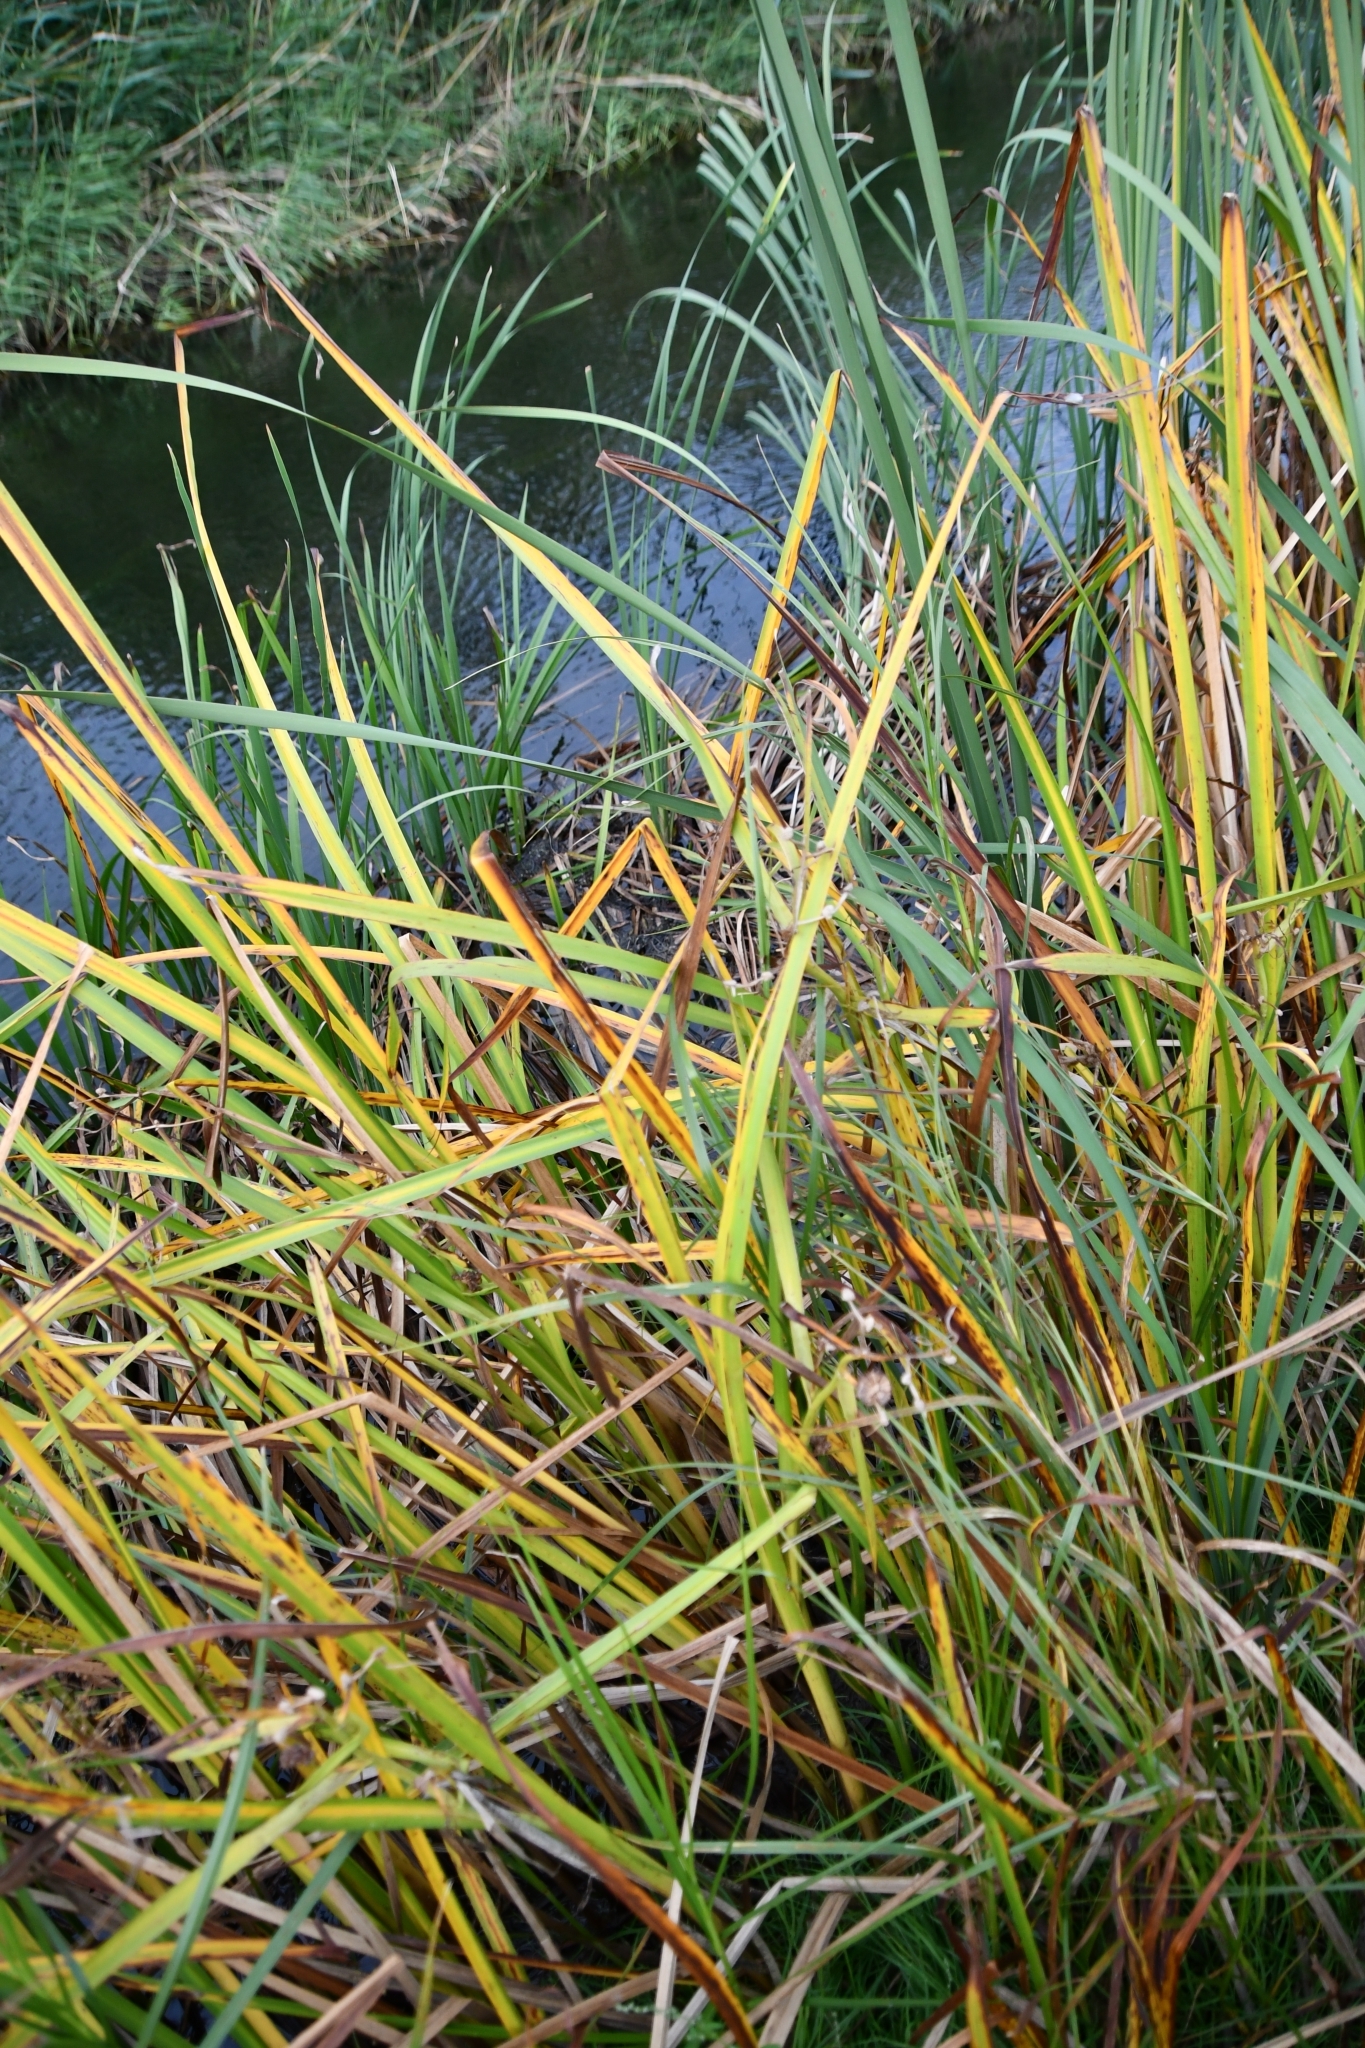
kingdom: Plantae
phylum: Tracheophyta
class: Liliopsida
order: Poales
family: Typhaceae
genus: Sparganium
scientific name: Sparganium erectum
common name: Branched bur-reed
